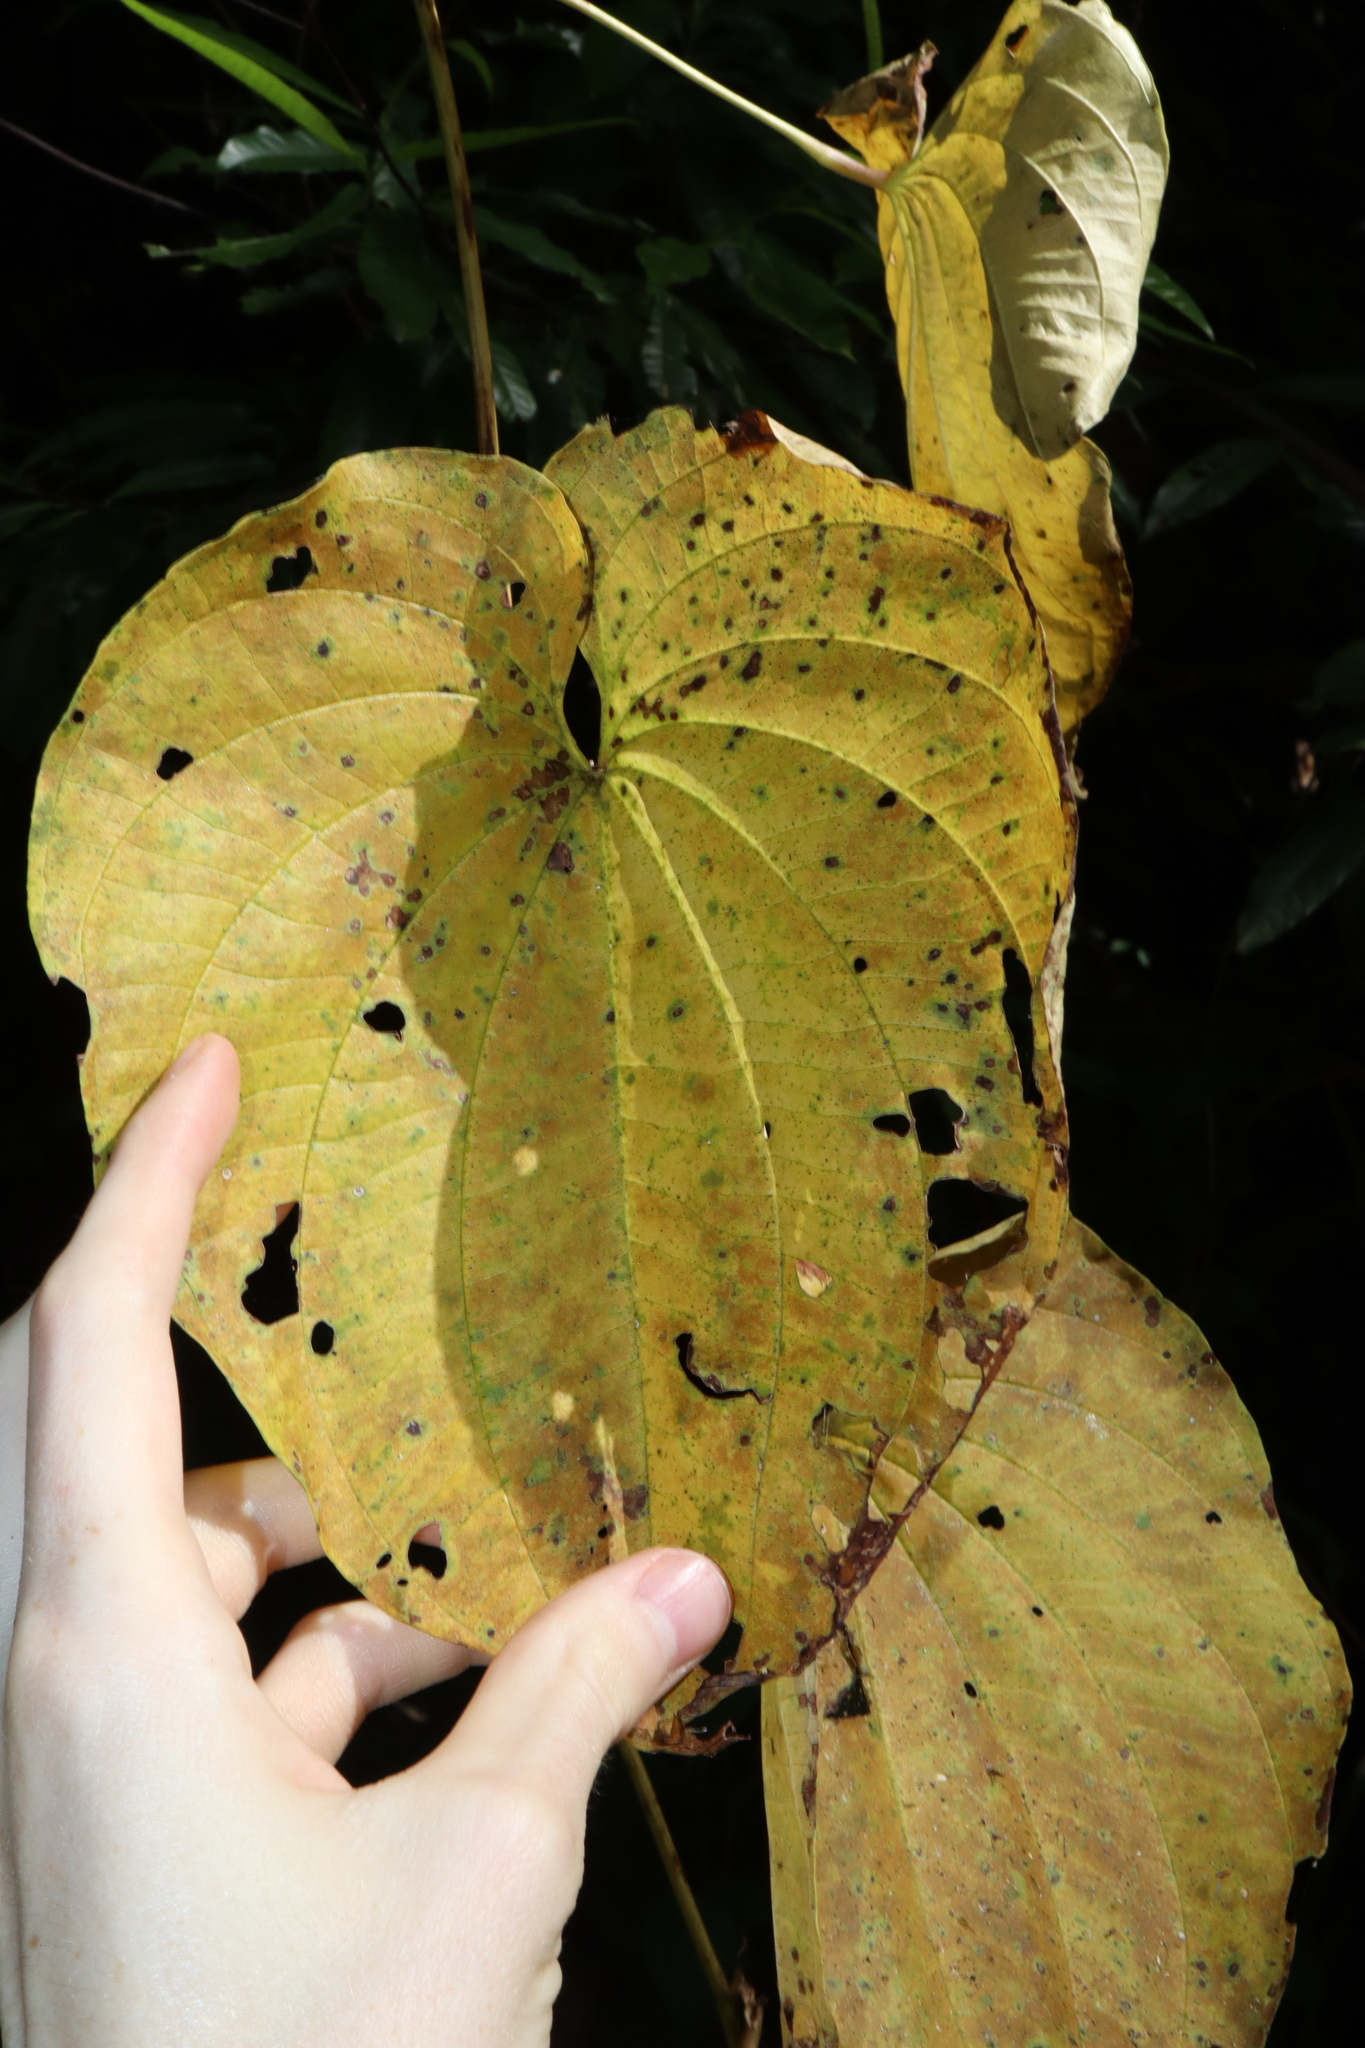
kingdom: Plantae
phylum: Tracheophyta
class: Liliopsida
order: Dioscoreales
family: Dioscoreaceae
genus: Dioscorea
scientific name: Dioscorea bulbifera
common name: Air yam
